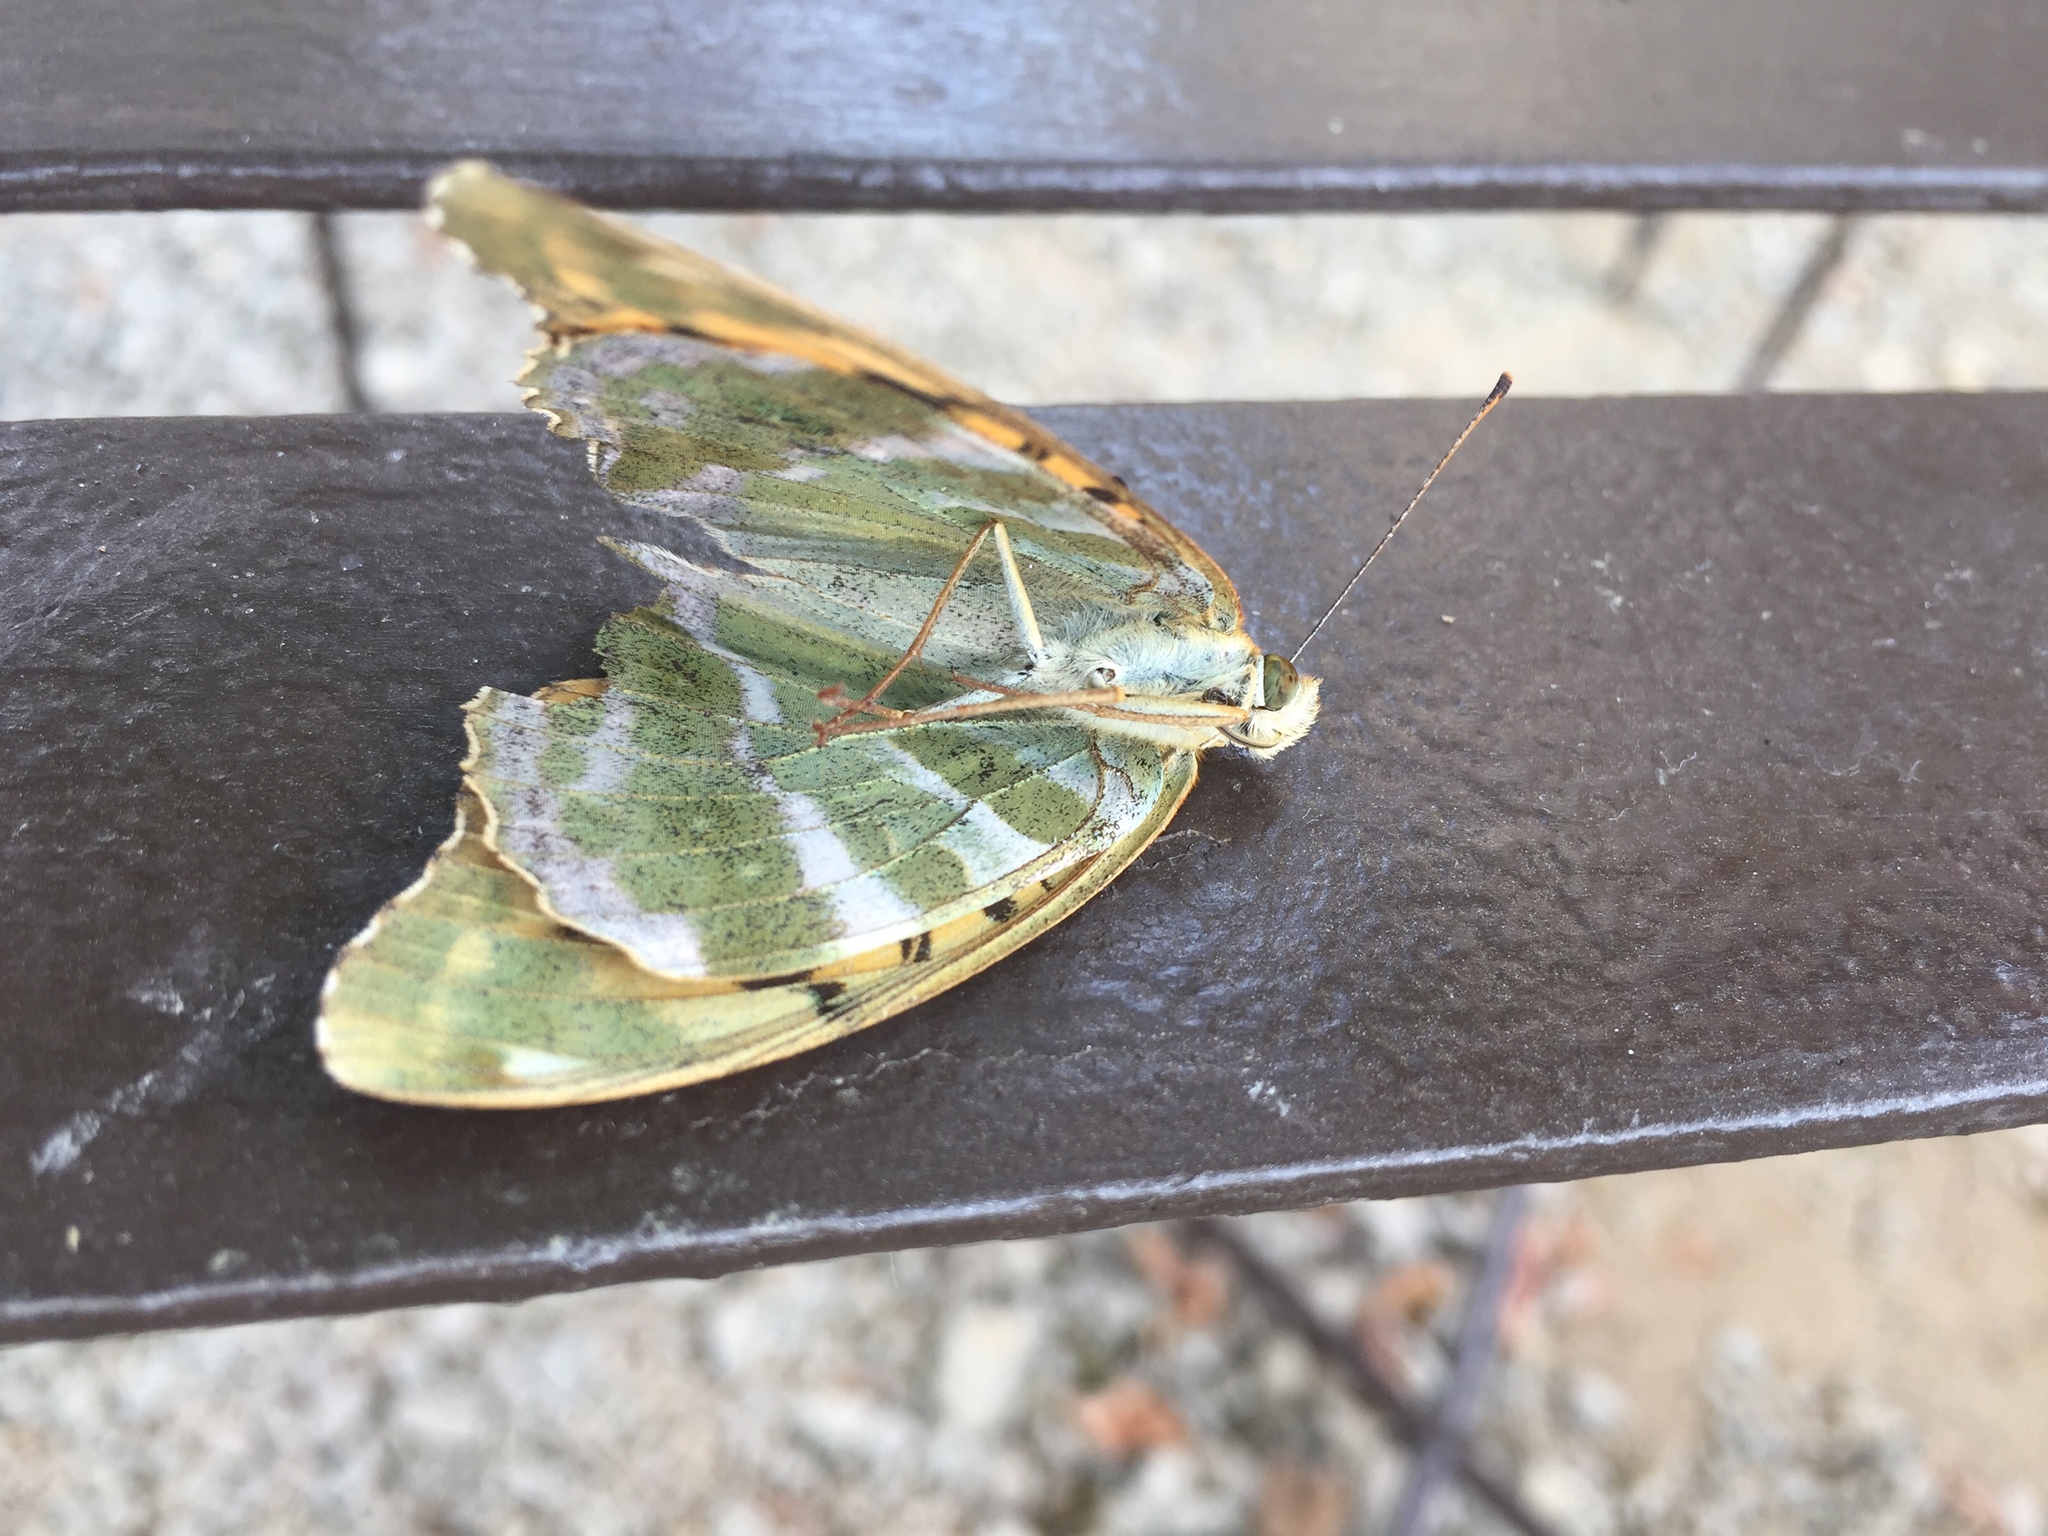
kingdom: Animalia
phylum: Arthropoda
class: Insecta
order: Lepidoptera
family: Nymphalidae
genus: Argynnis
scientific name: Argynnis paphia
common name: Silver-washed fritillary
